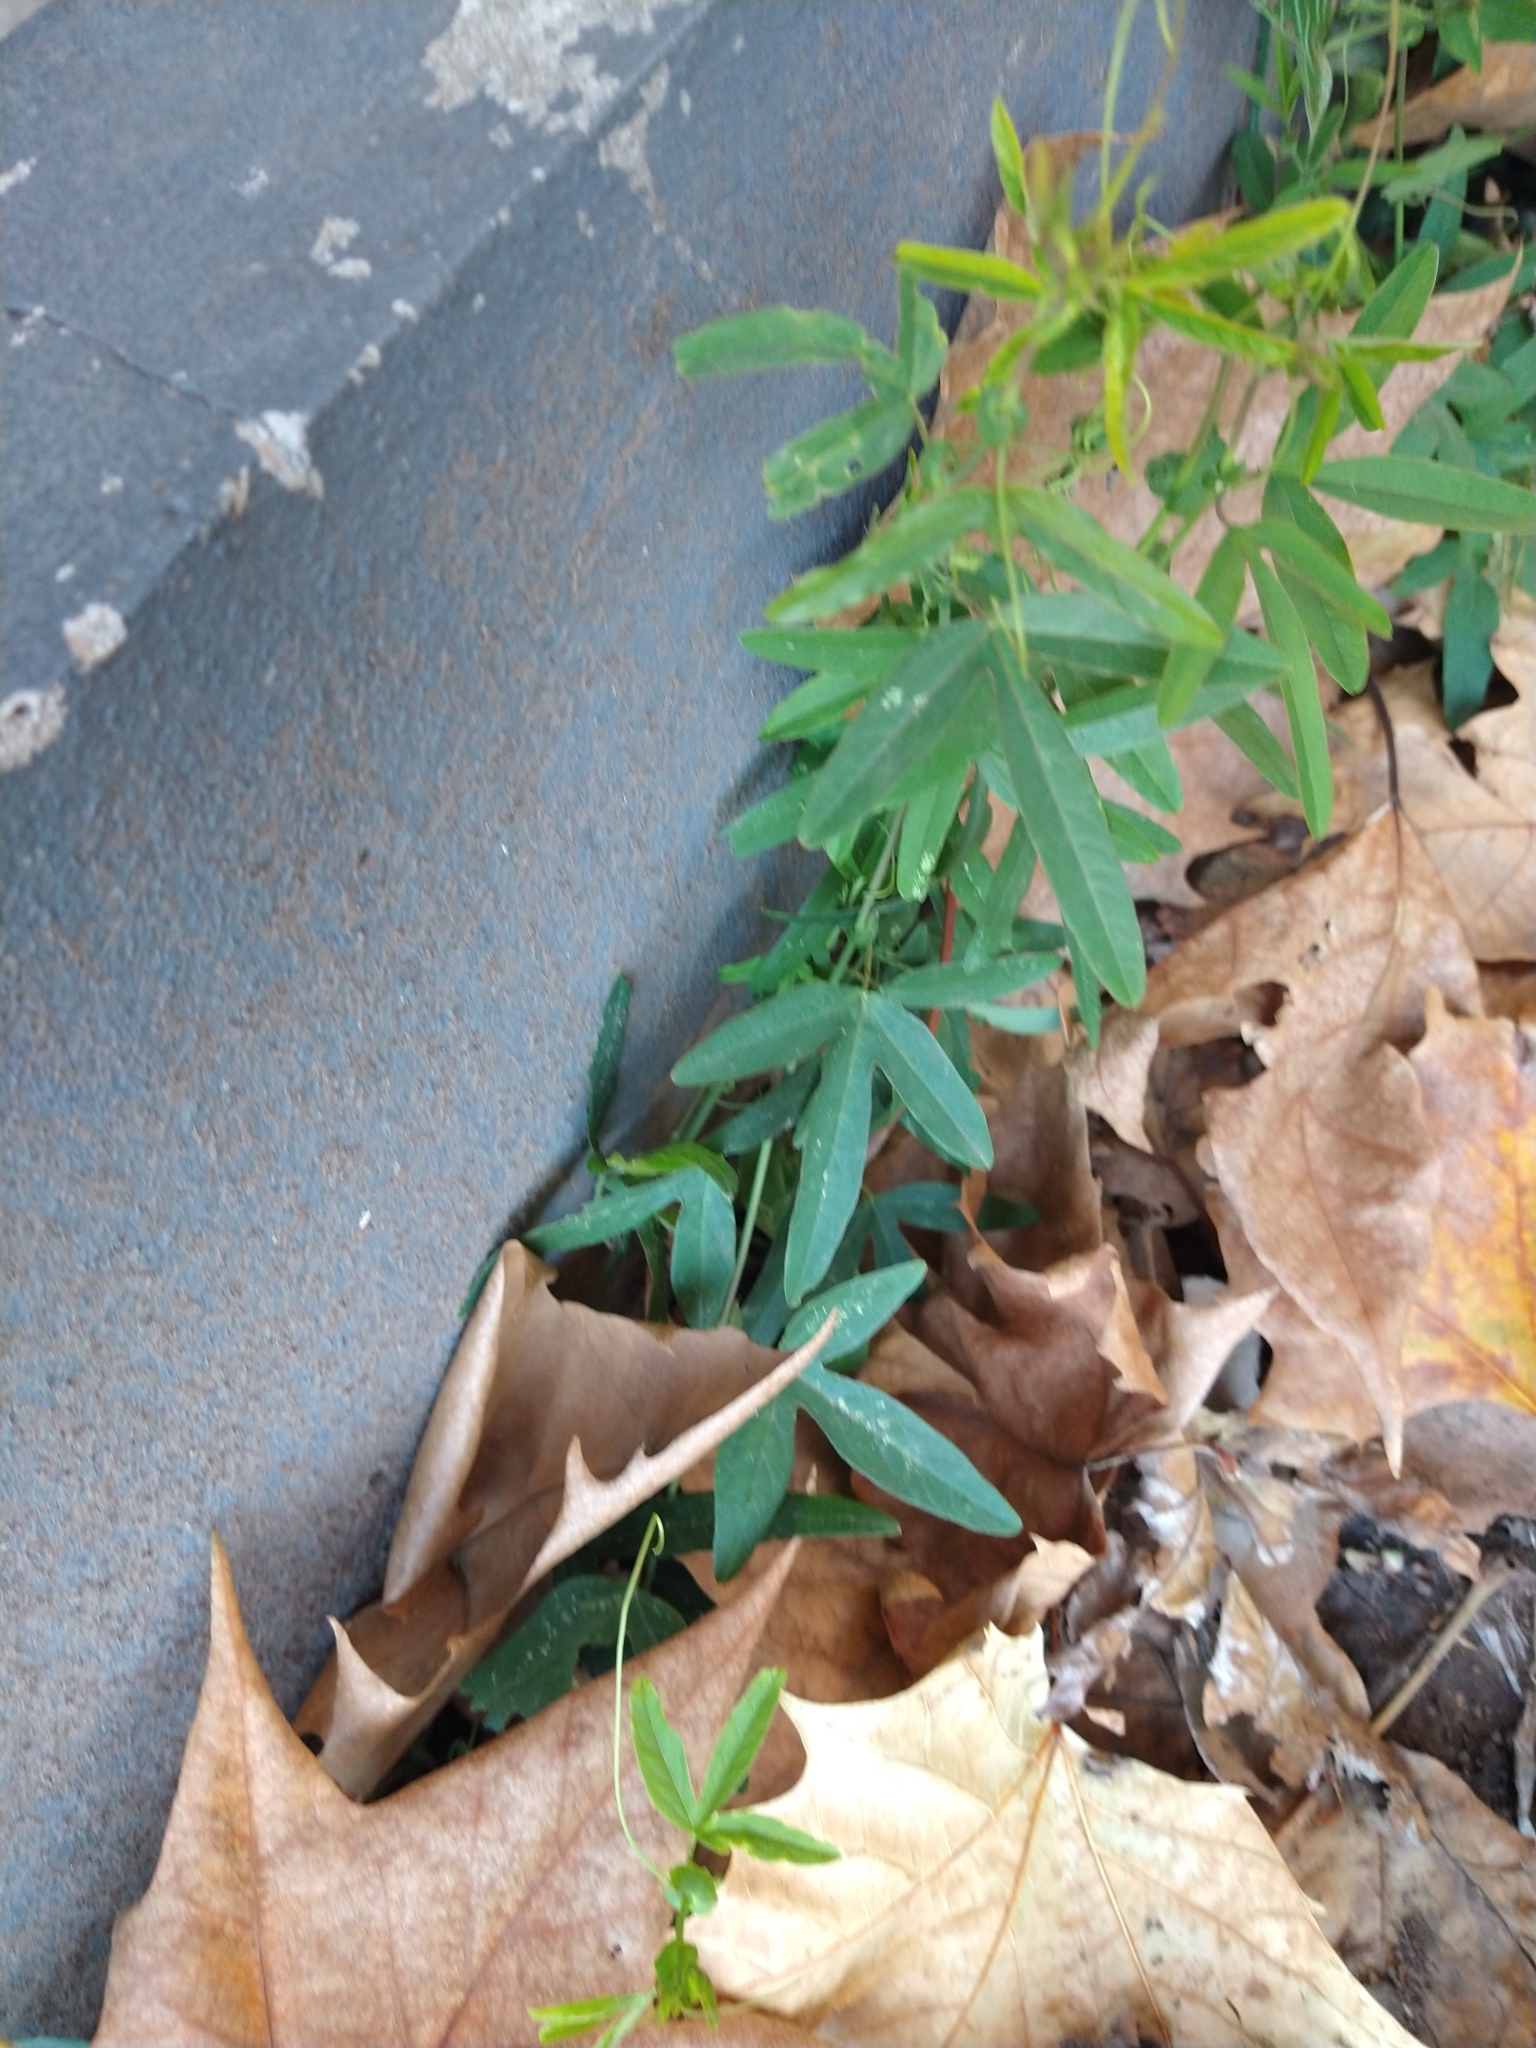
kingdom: Plantae
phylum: Tracheophyta
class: Magnoliopsida
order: Malpighiales
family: Passifloraceae
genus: Passiflora
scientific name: Passiflora caerulea
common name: Blue passionflower
